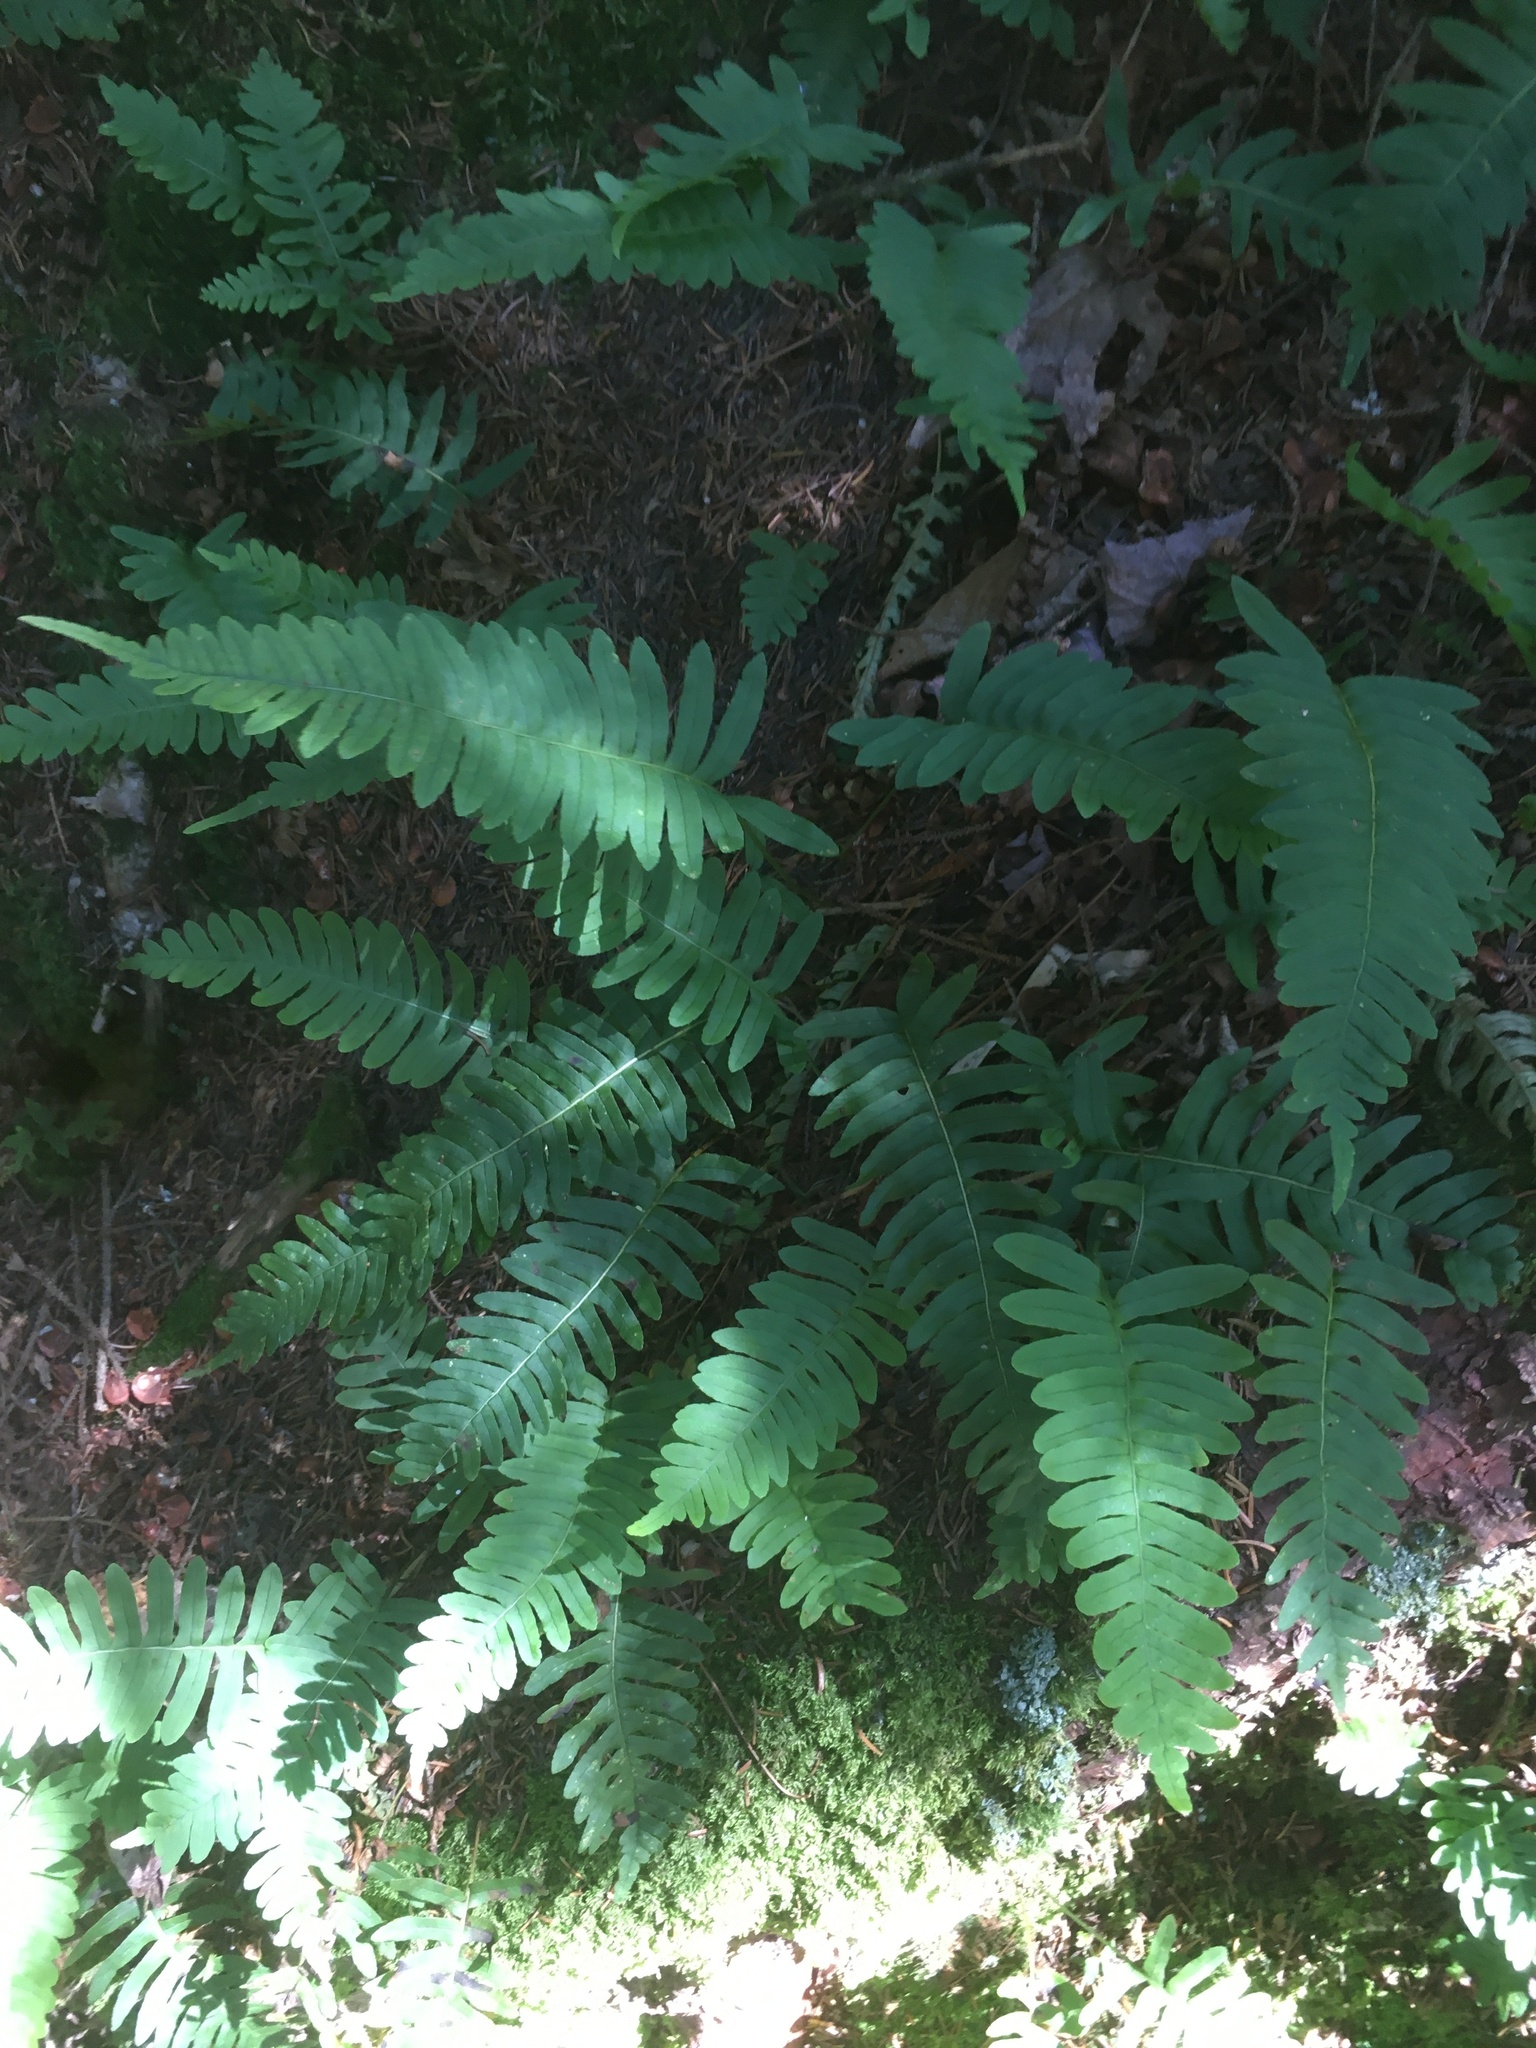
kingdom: Plantae
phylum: Tracheophyta
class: Polypodiopsida
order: Polypodiales
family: Polypodiaceae
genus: Polypodium
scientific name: Polypodium virginianum
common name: American wall fern
